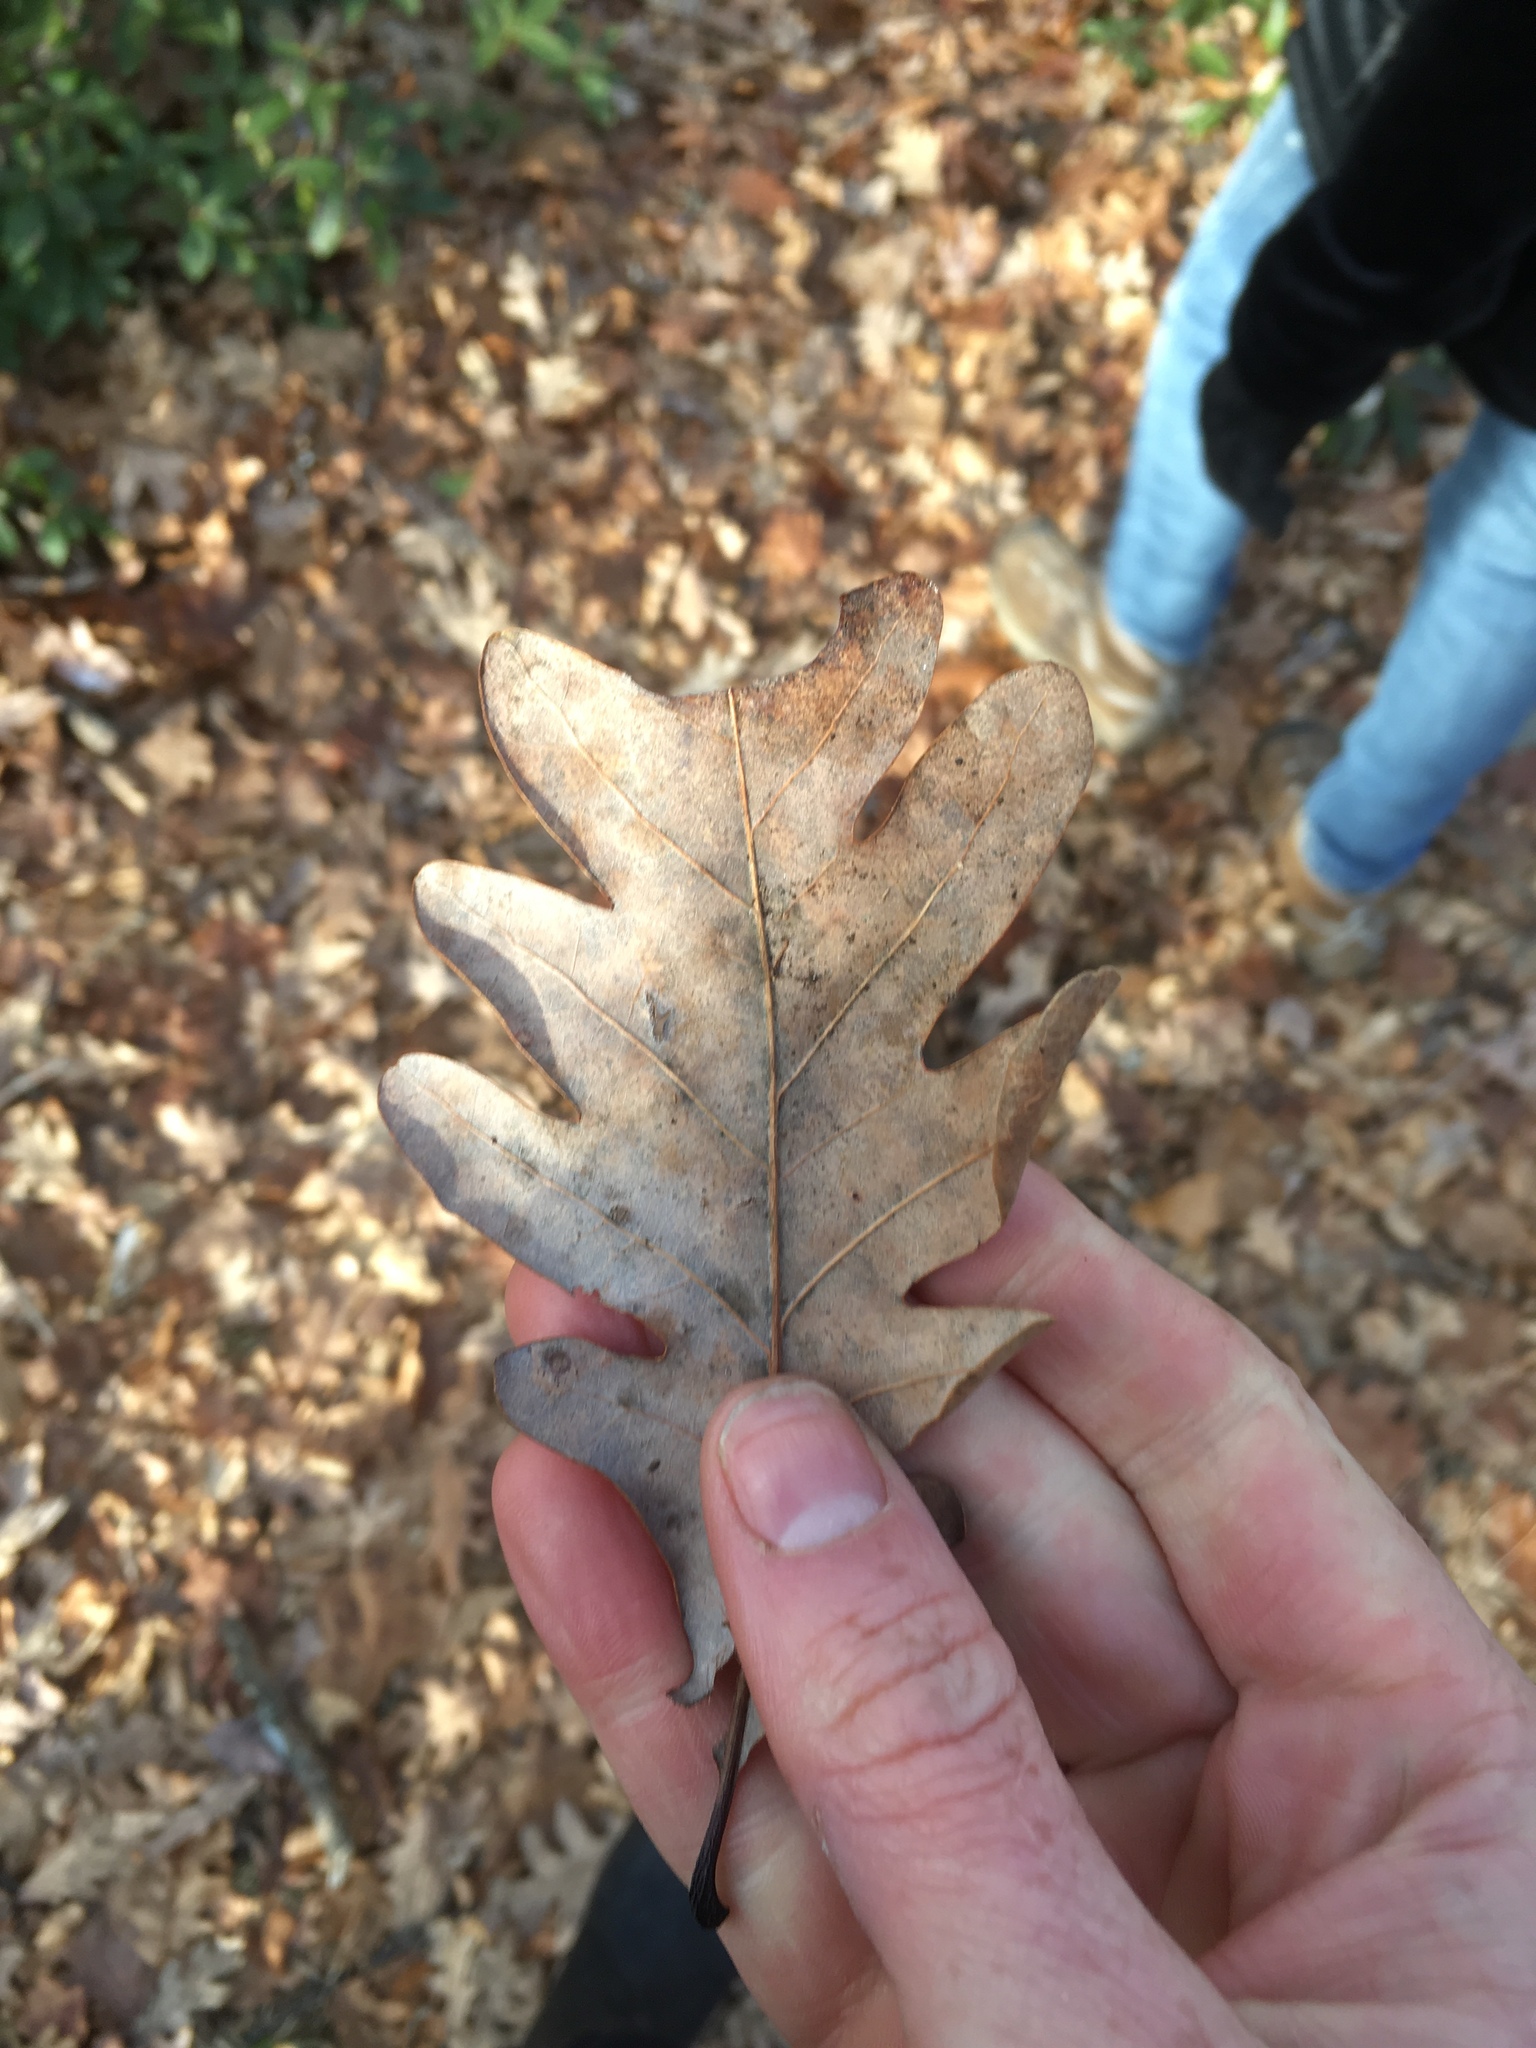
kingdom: Plantae
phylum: Tracheophyta
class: Magnoliopsida
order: Fagales
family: Fagaceae
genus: Quercus
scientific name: Quercus alba
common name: White oak
